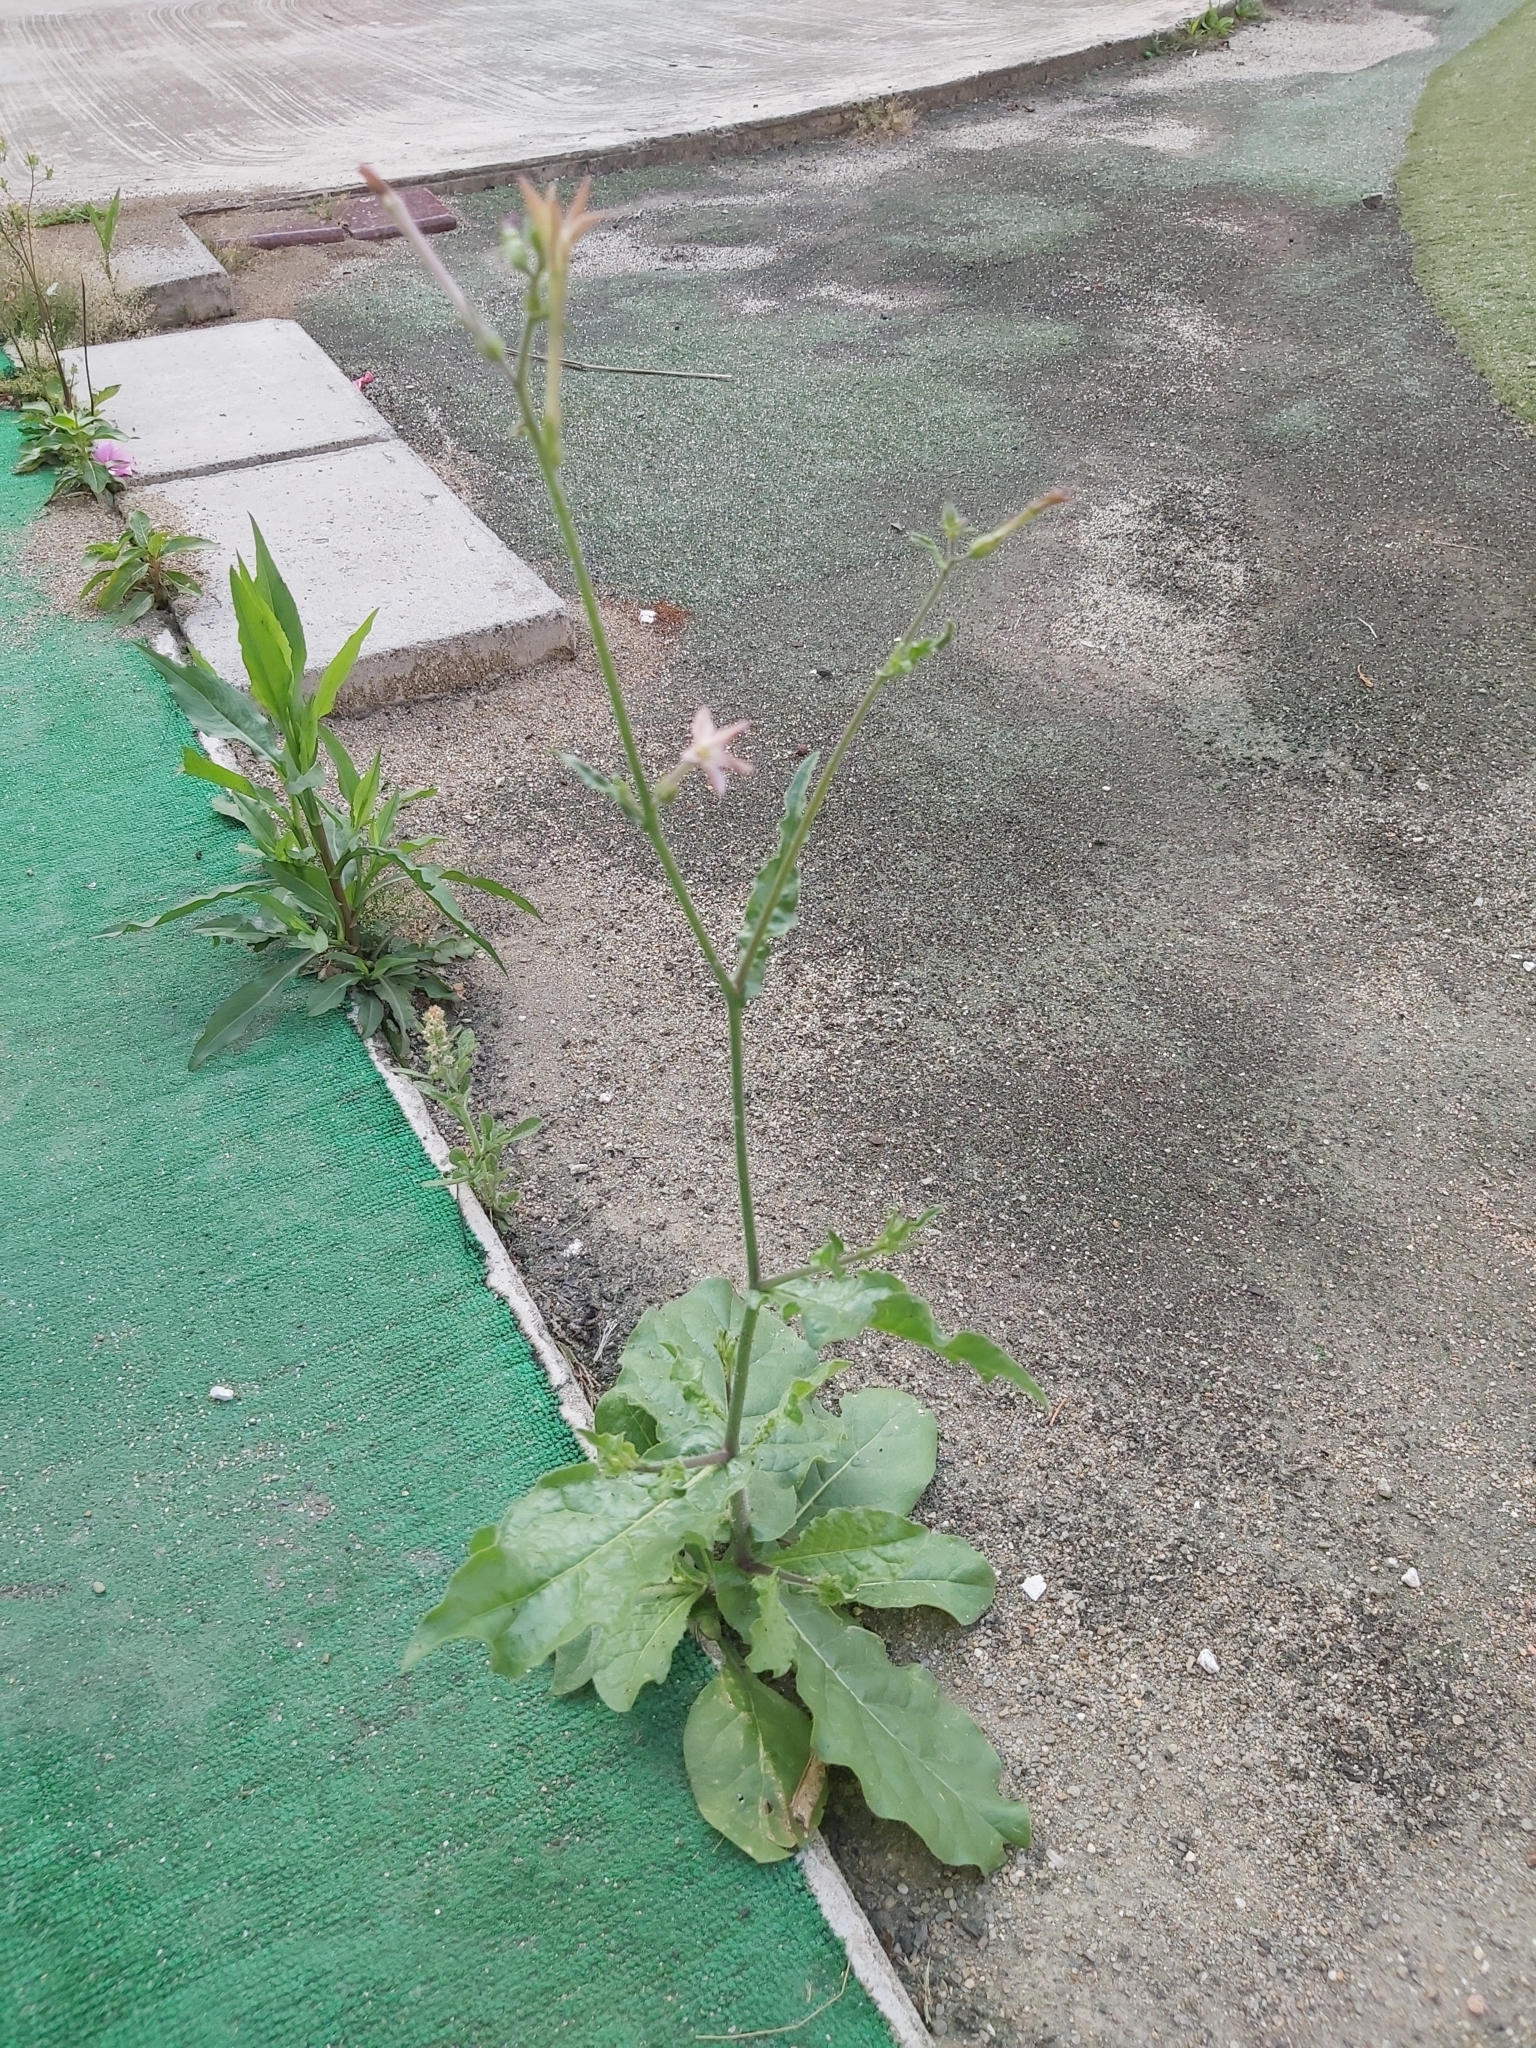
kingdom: Plantae
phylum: Tracheophyta
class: Magnoliopsida
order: Solanales
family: Solanaceae
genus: Nicotiana
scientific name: Nicotiana plumbaginifolia
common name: Tex-mex tobacco
